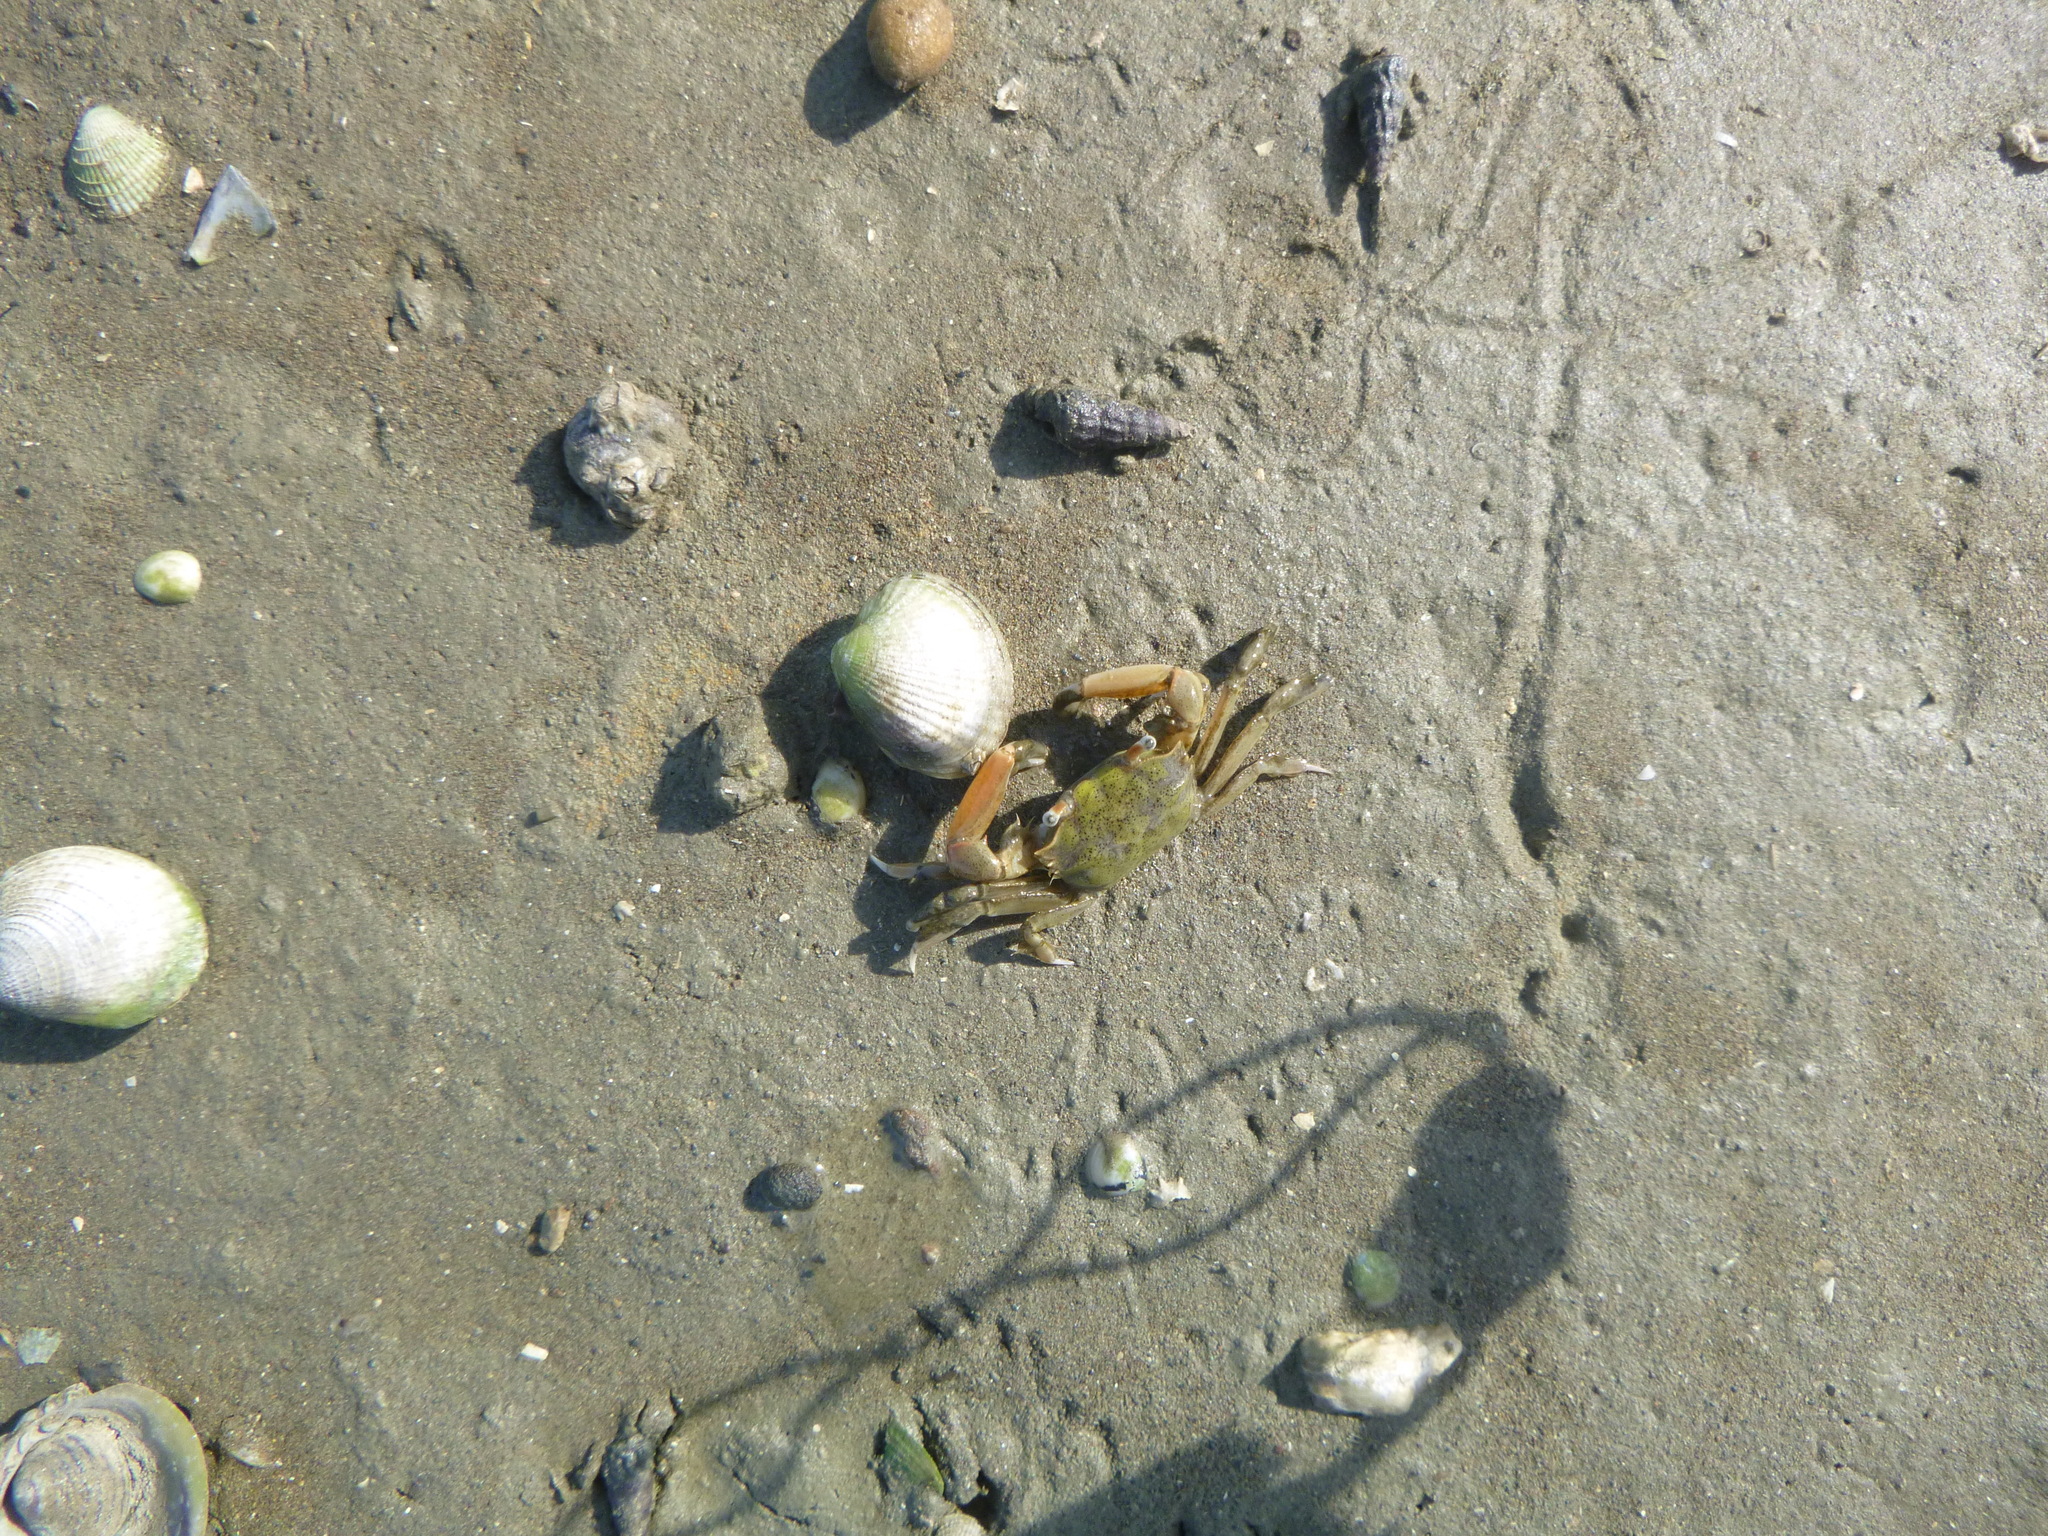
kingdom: Animalia
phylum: Arthropoda
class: Malacostraca
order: Decapoda
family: Macrophthalmidae
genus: Hemiplax
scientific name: Hemiplax hirtipes
